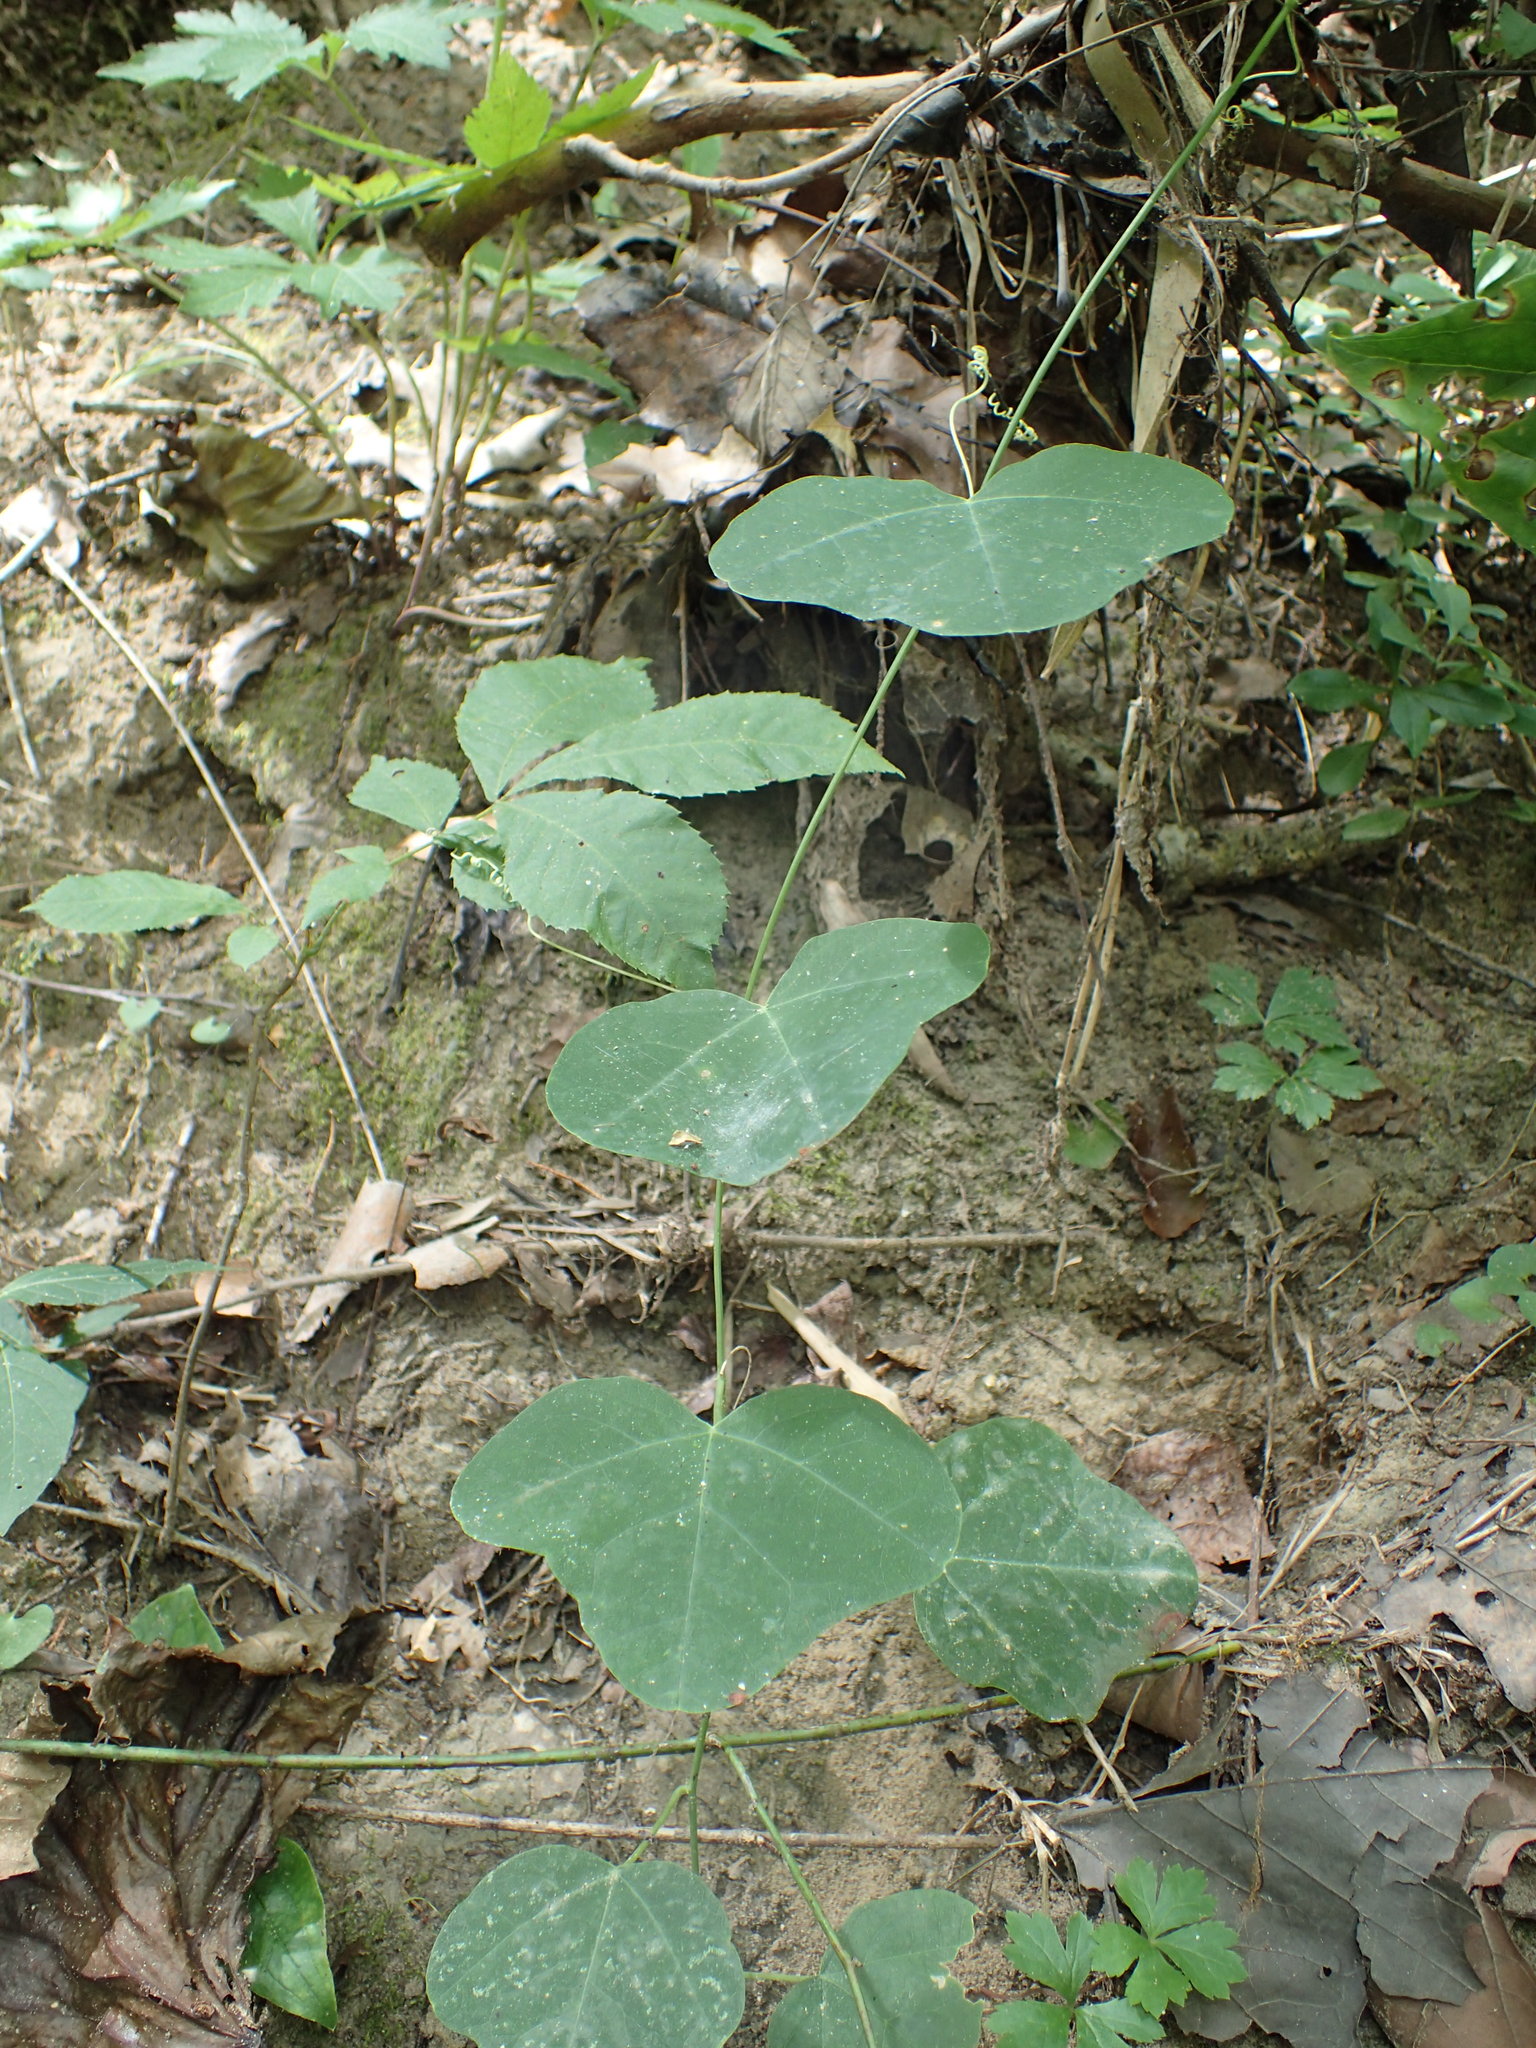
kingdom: Plantae
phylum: Tracheophyta
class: Magnoliopsida
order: Malpighiales
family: Passifloraceae
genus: Passiflora
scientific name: Passiflora lutea
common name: Yellow passionflower
